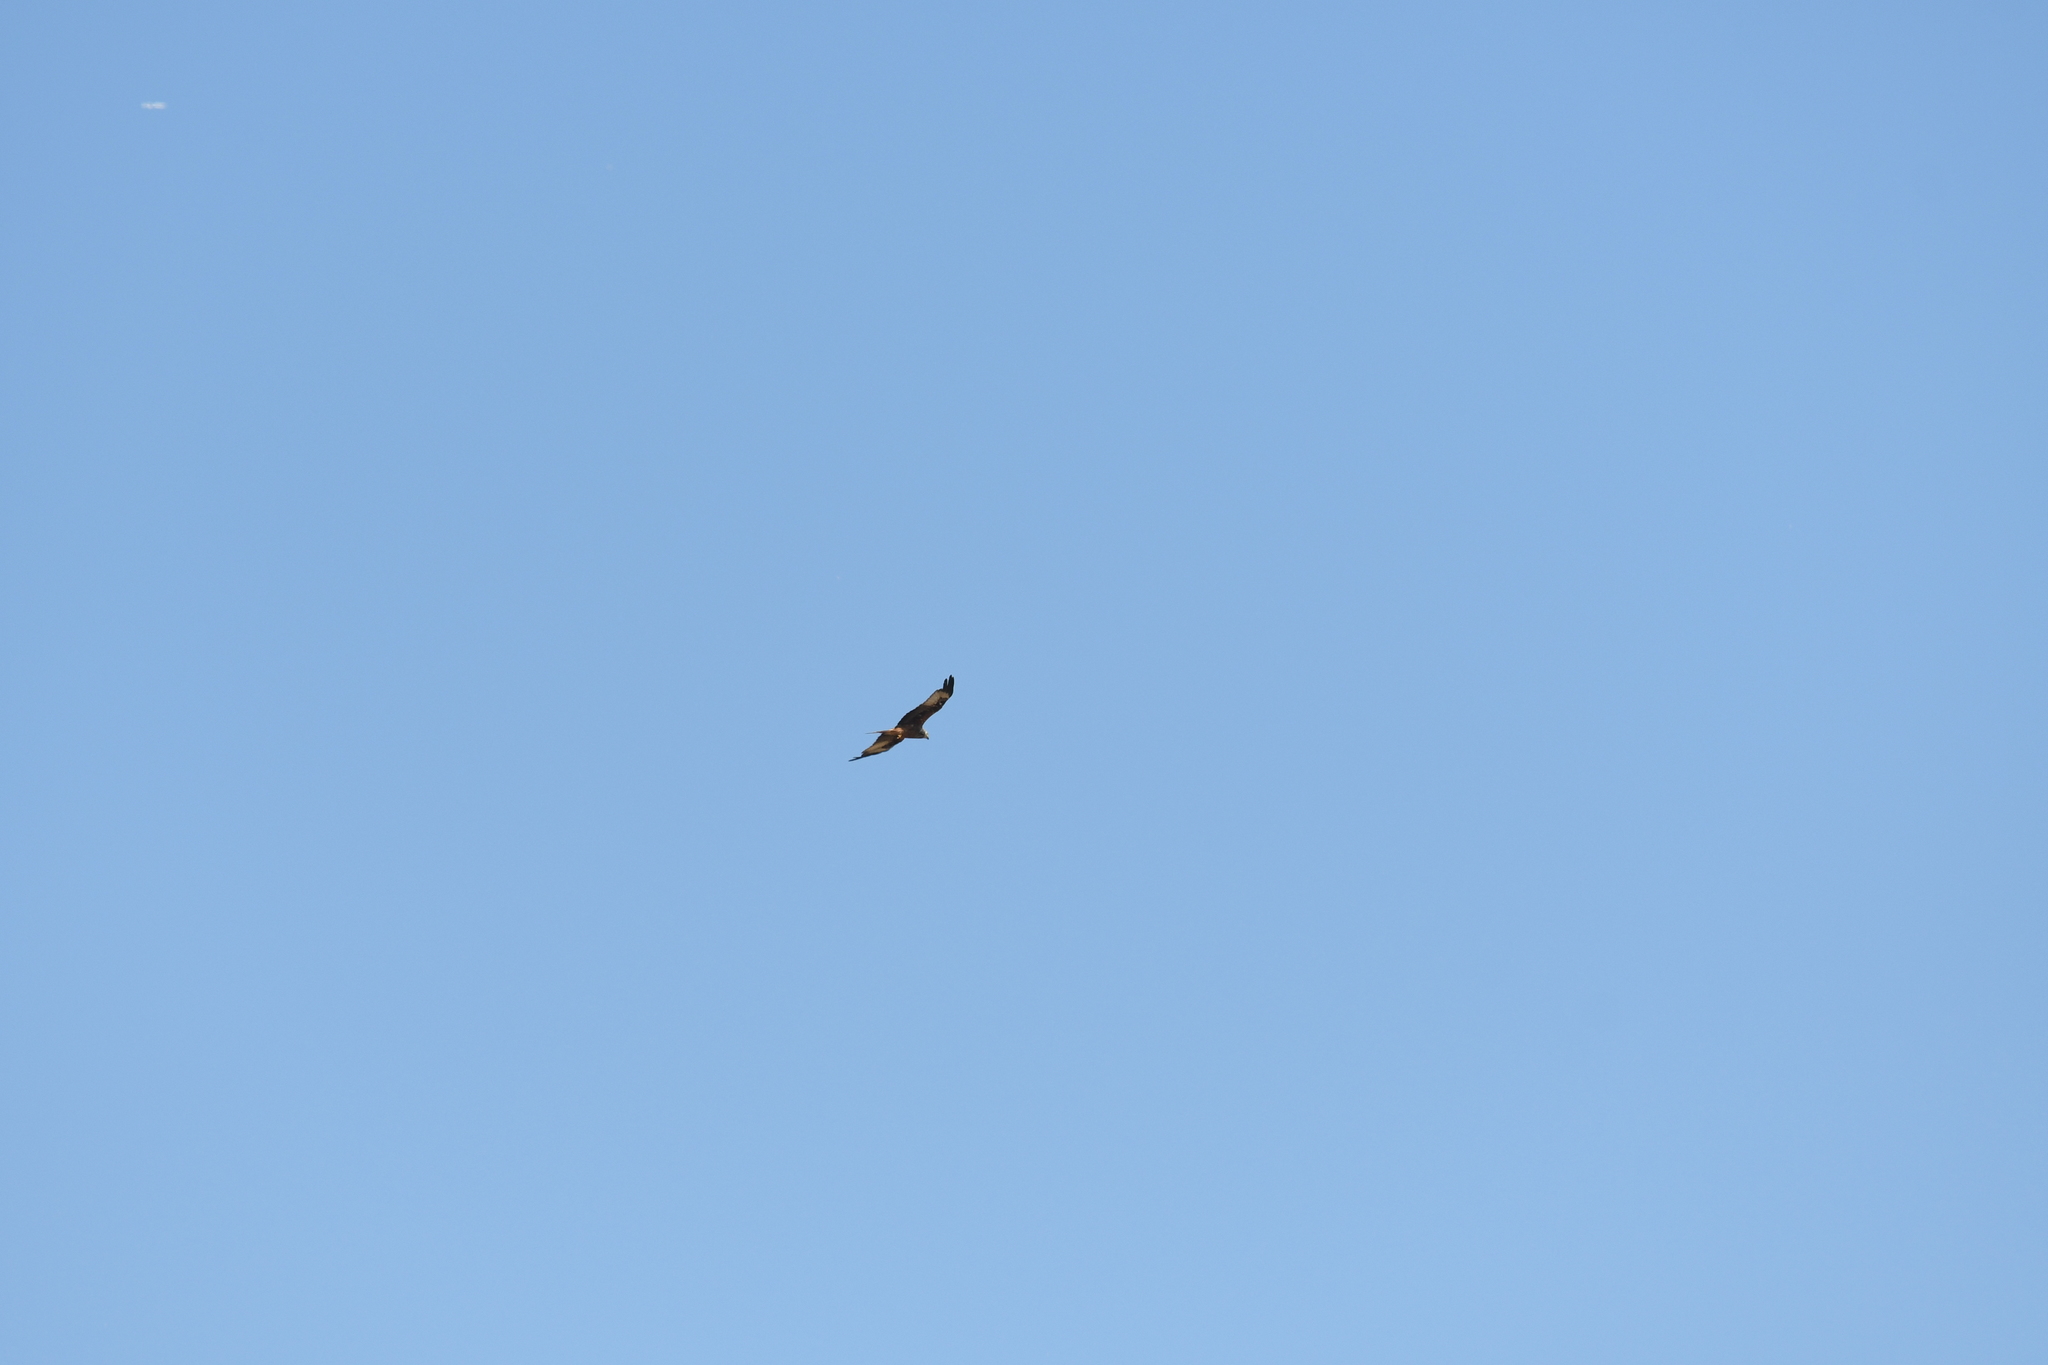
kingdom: Animalia
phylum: Chordata
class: Aves
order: Accipitriformes
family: Accipitridae
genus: Milvus
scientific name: Milvus milvus
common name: Red kite
